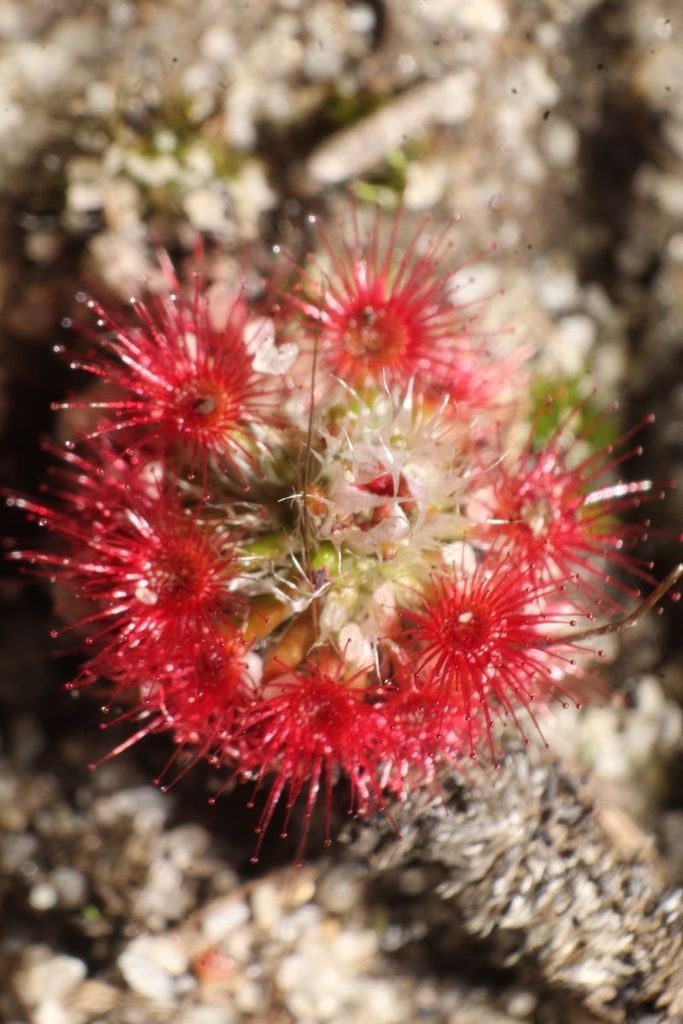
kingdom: Plantae
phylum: Tracheophyta
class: Magnoliopsida
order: Caryophyllales
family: Droseraceae
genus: Drosera
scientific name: Drosera paleacea
